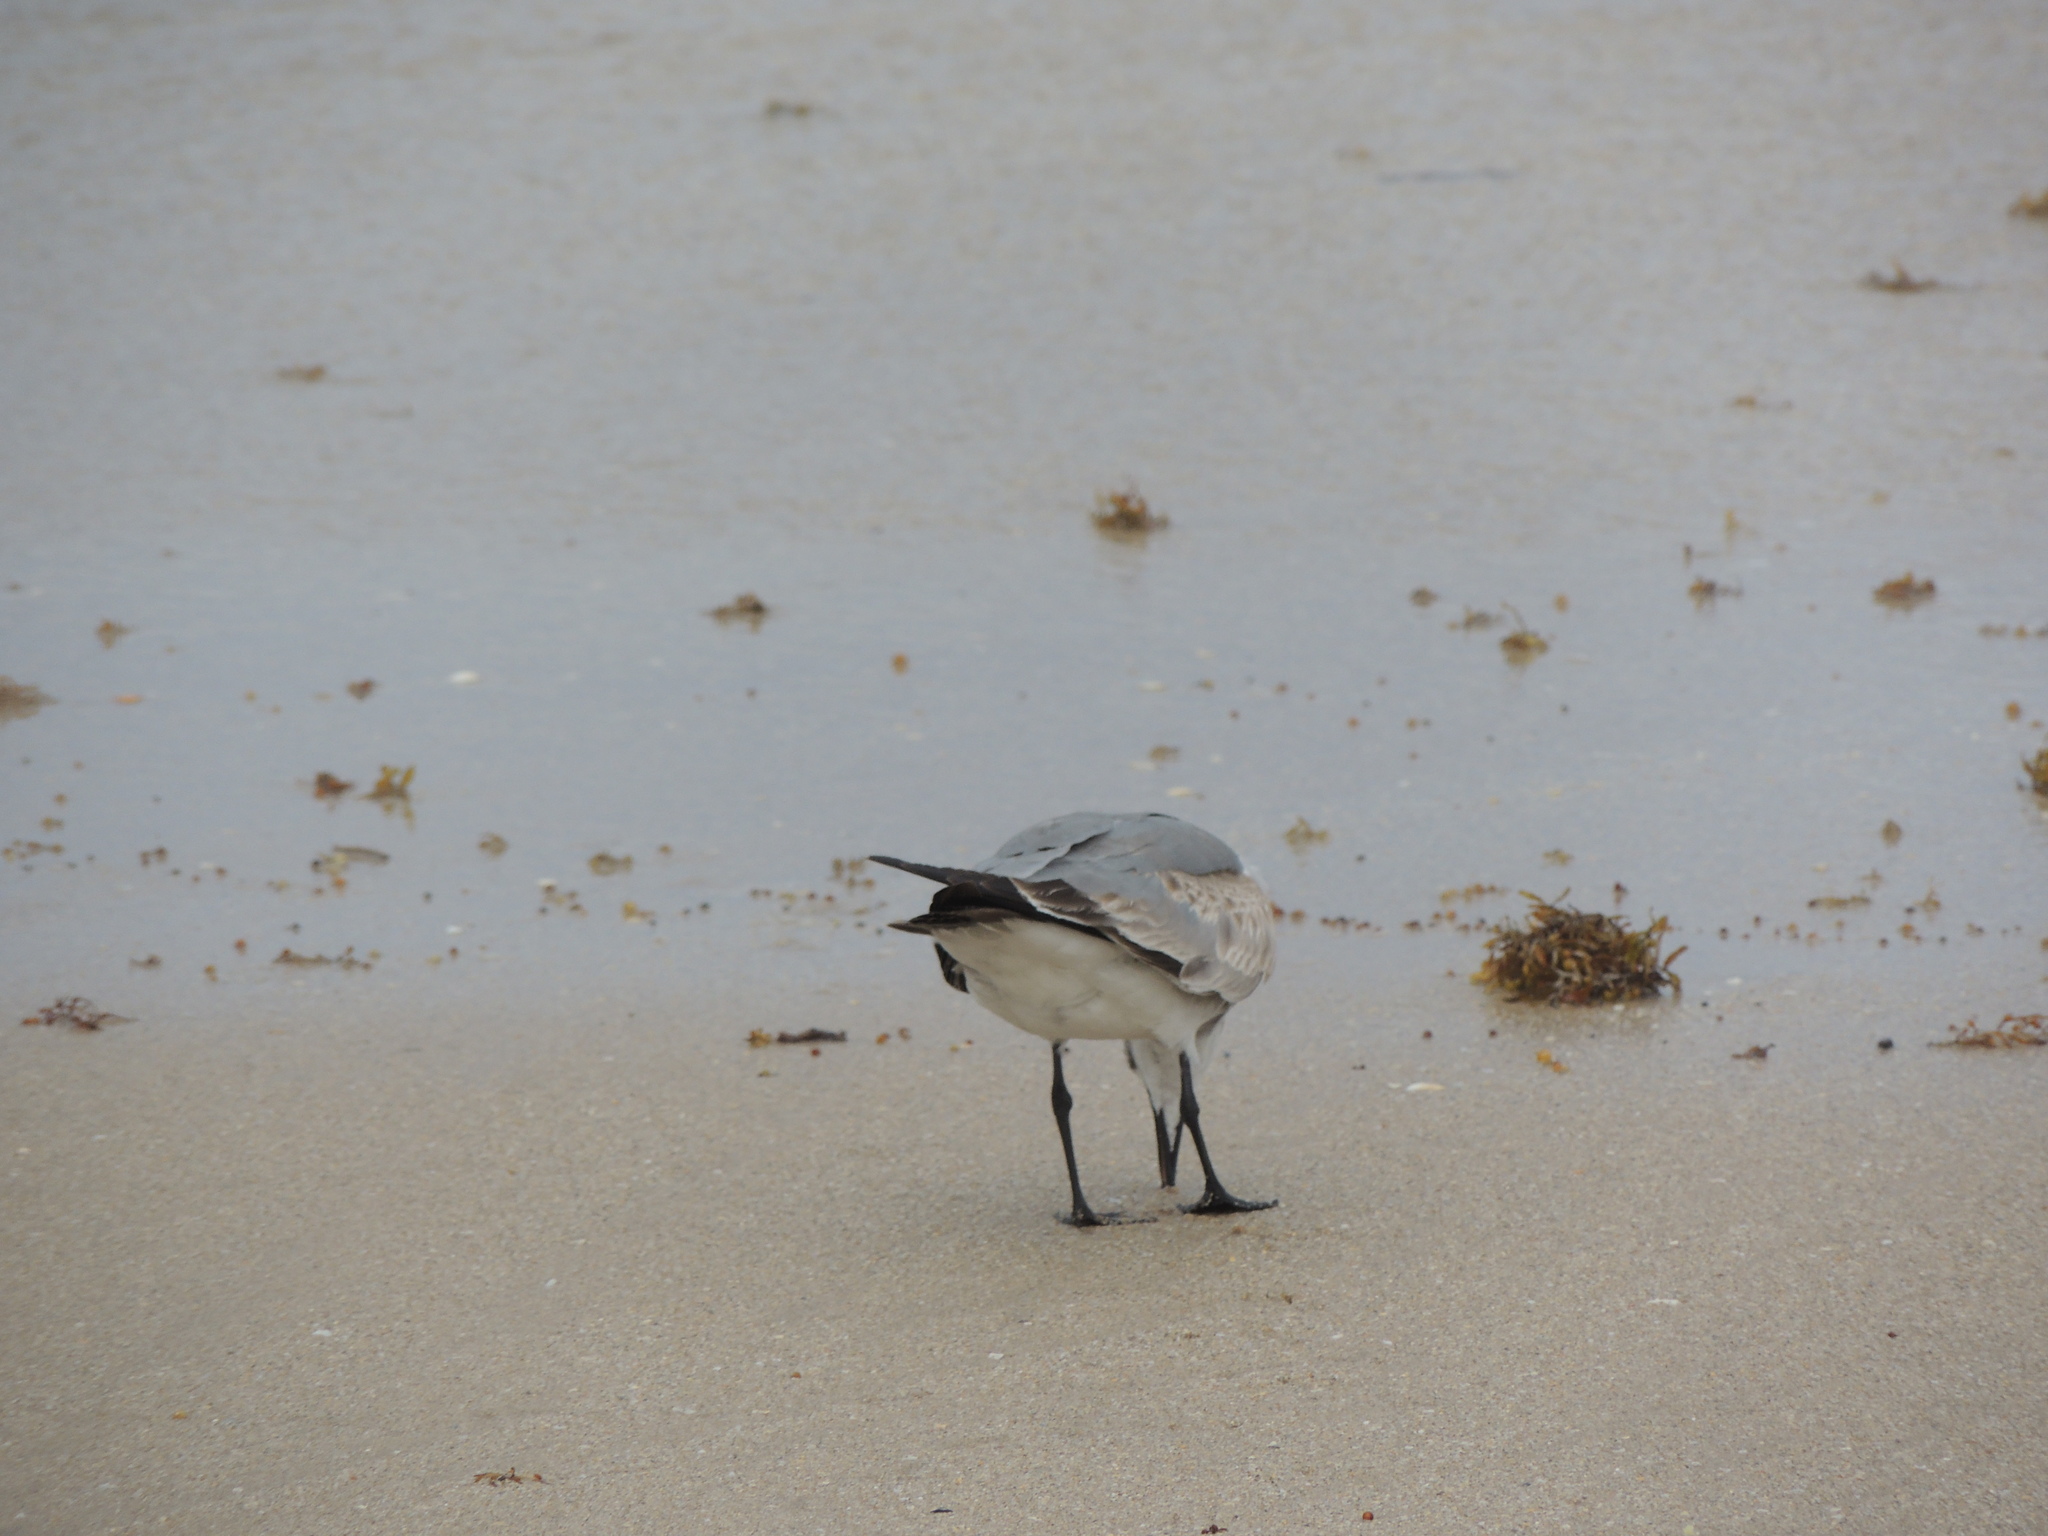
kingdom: Animalia
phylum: Chordata
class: Aves
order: Charadriiformes
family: Laridae
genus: Leucophaeus
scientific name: Leucophaeus atricilla
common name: Laughing gull
